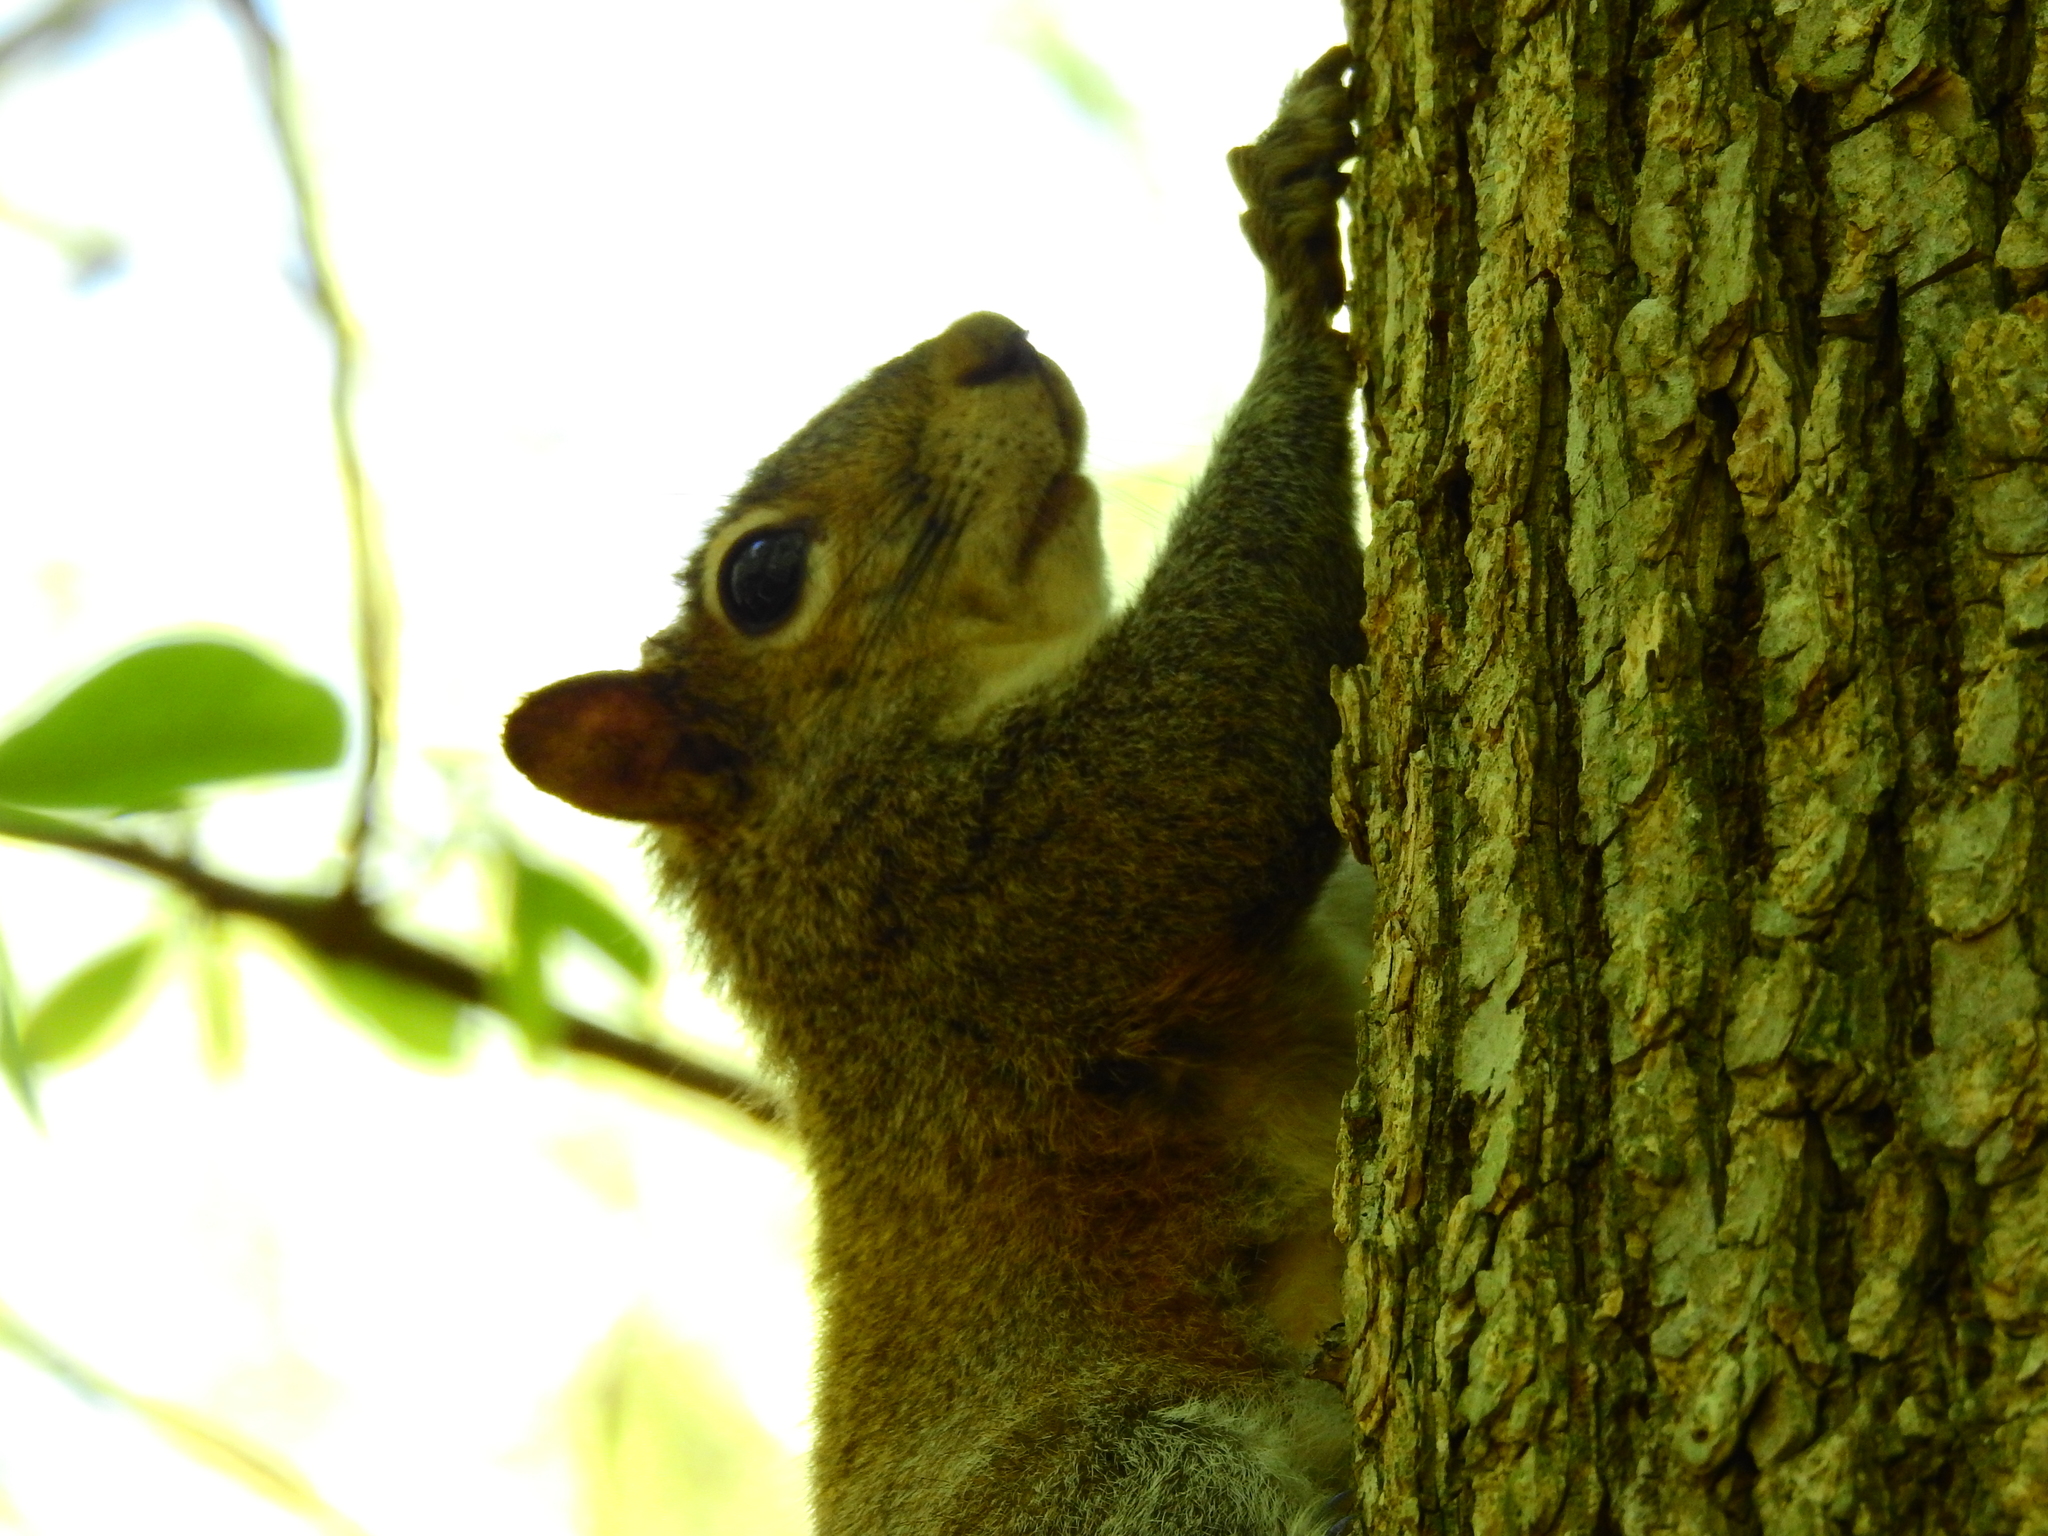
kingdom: Animalia
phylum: Chordata
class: Mammalia
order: Rodentia
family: Sciuridae
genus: Sciurus
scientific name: Sciurus carolinensis
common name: Eastern gray squirrel
